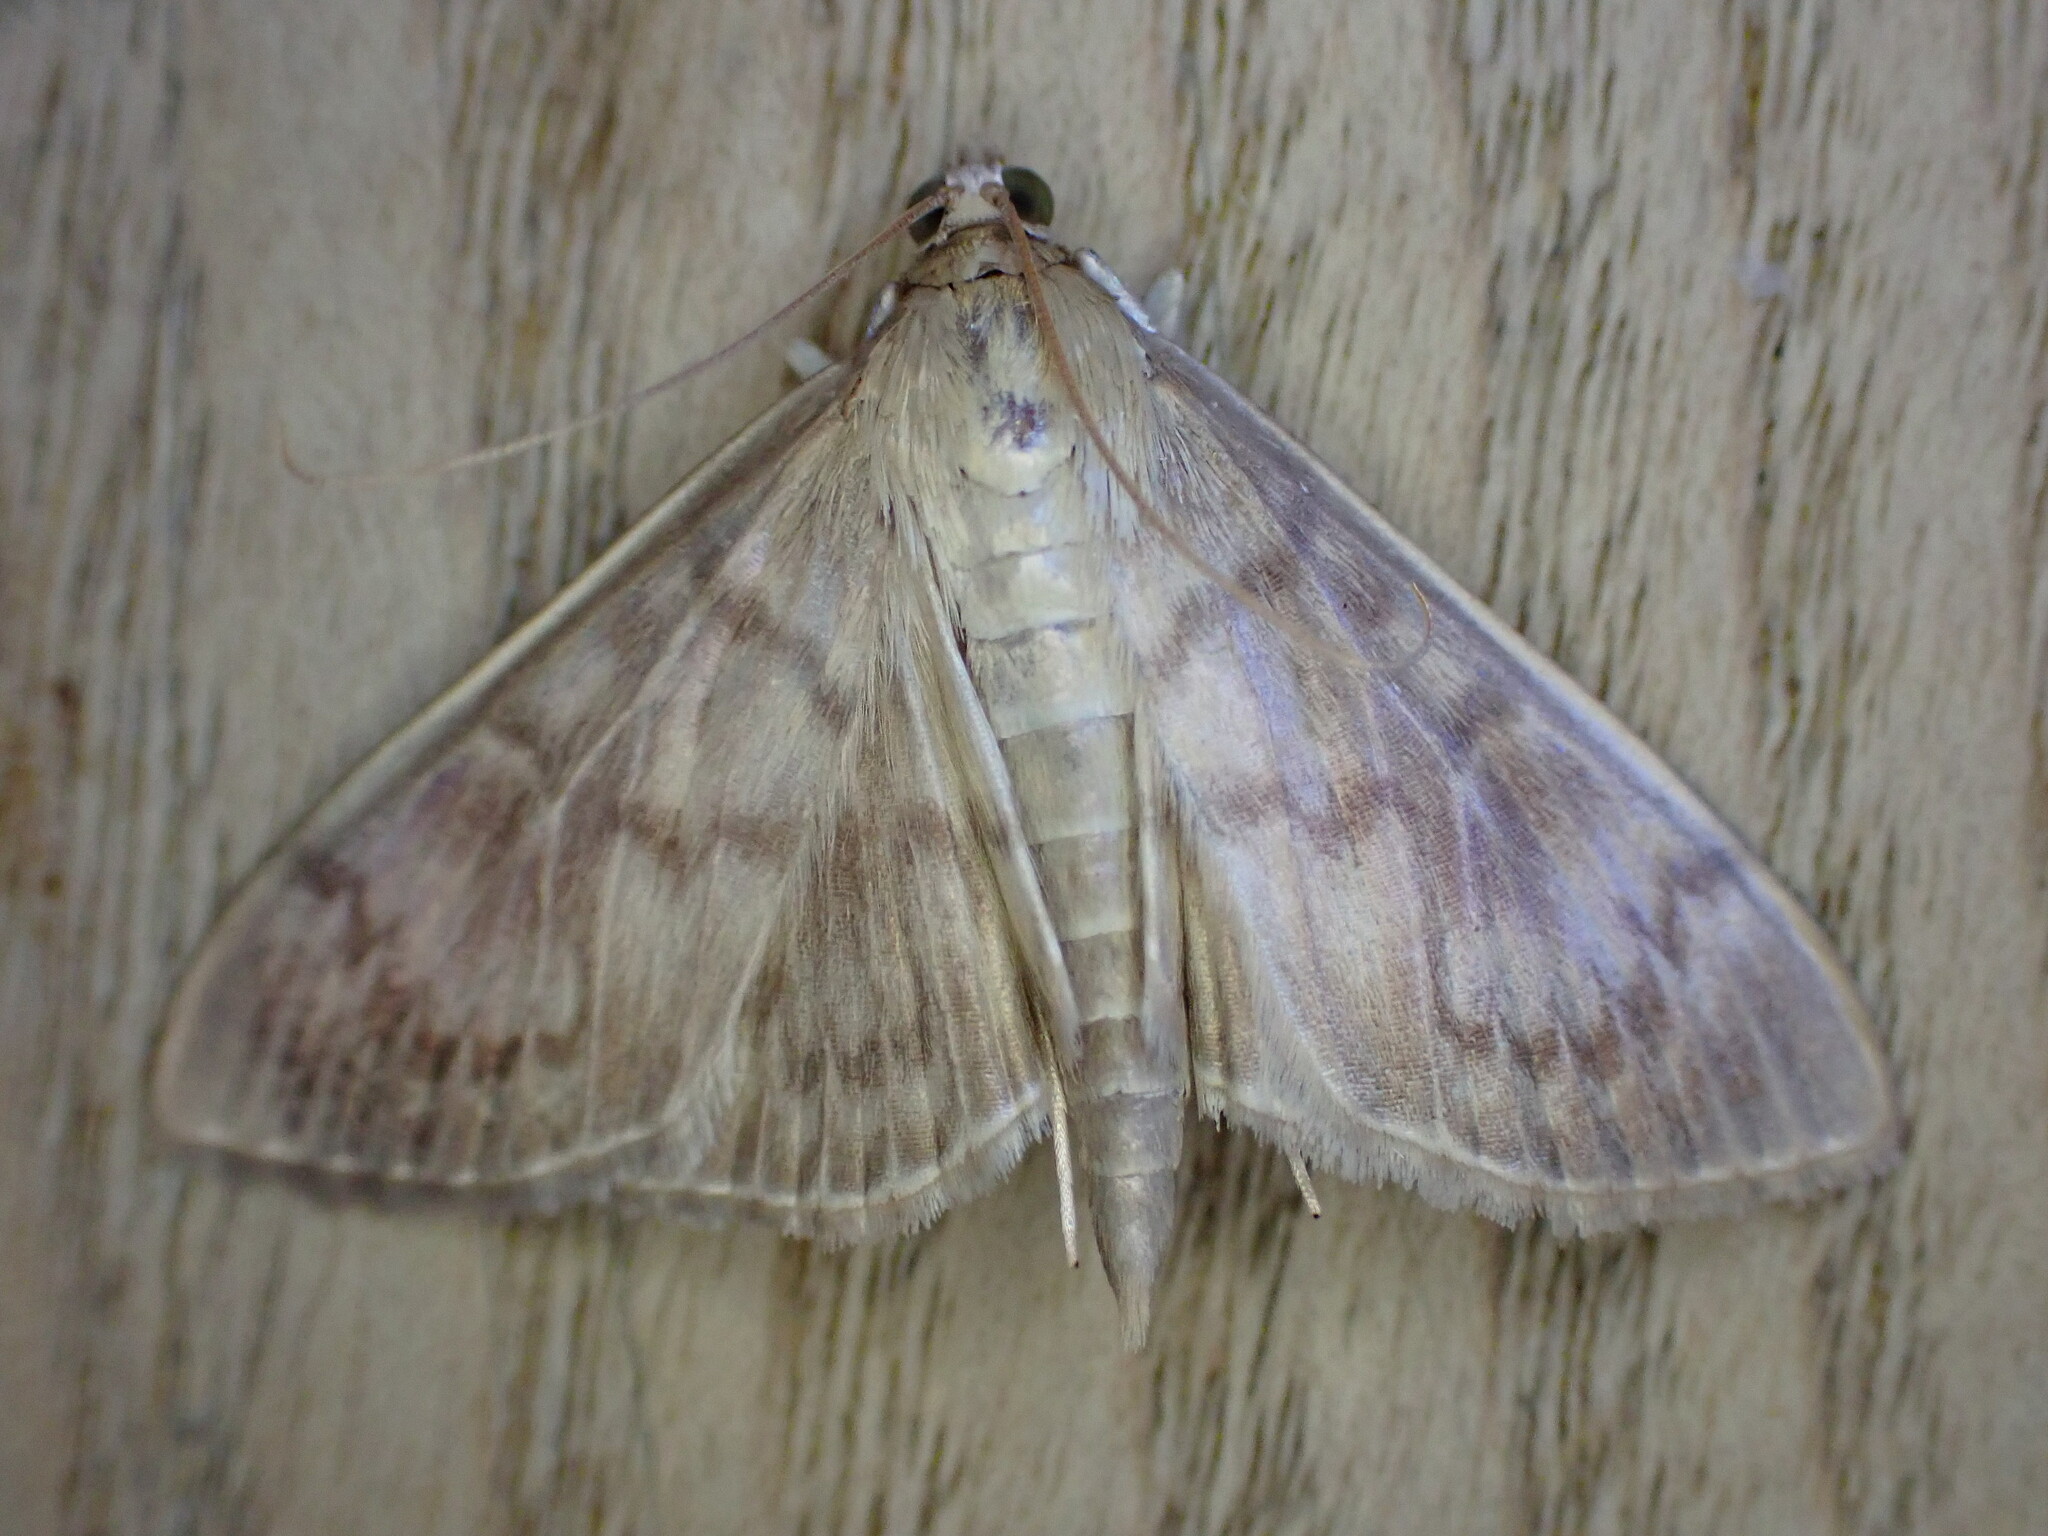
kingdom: Animalia
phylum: Arthropoda
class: Insecta
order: Lepidoptera
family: Crambidae
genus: Patania
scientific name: Patania ruralis
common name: Mother of pearl
